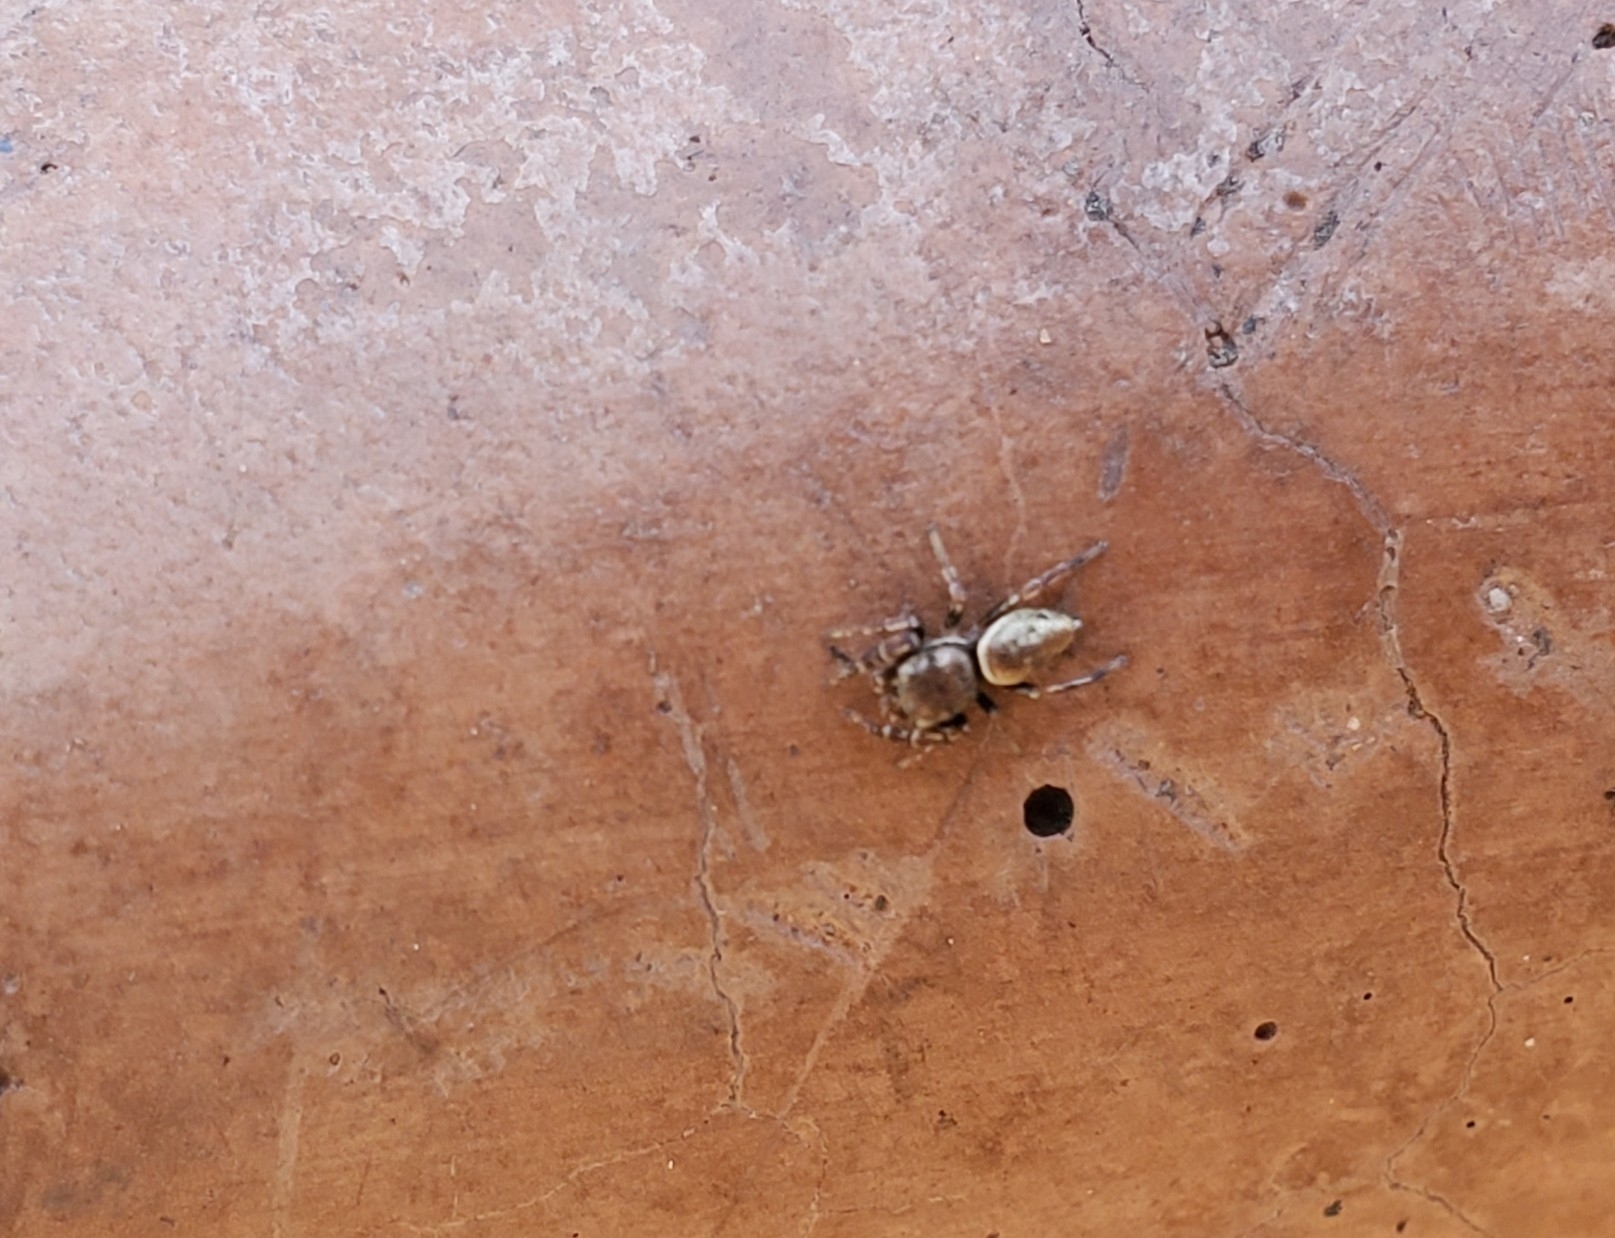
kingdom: Animalia
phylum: Arthropoda
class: Arachnida
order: Araneae
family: Salticidae
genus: Sassacus
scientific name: Sassacus vitis
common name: Jumping spiders
